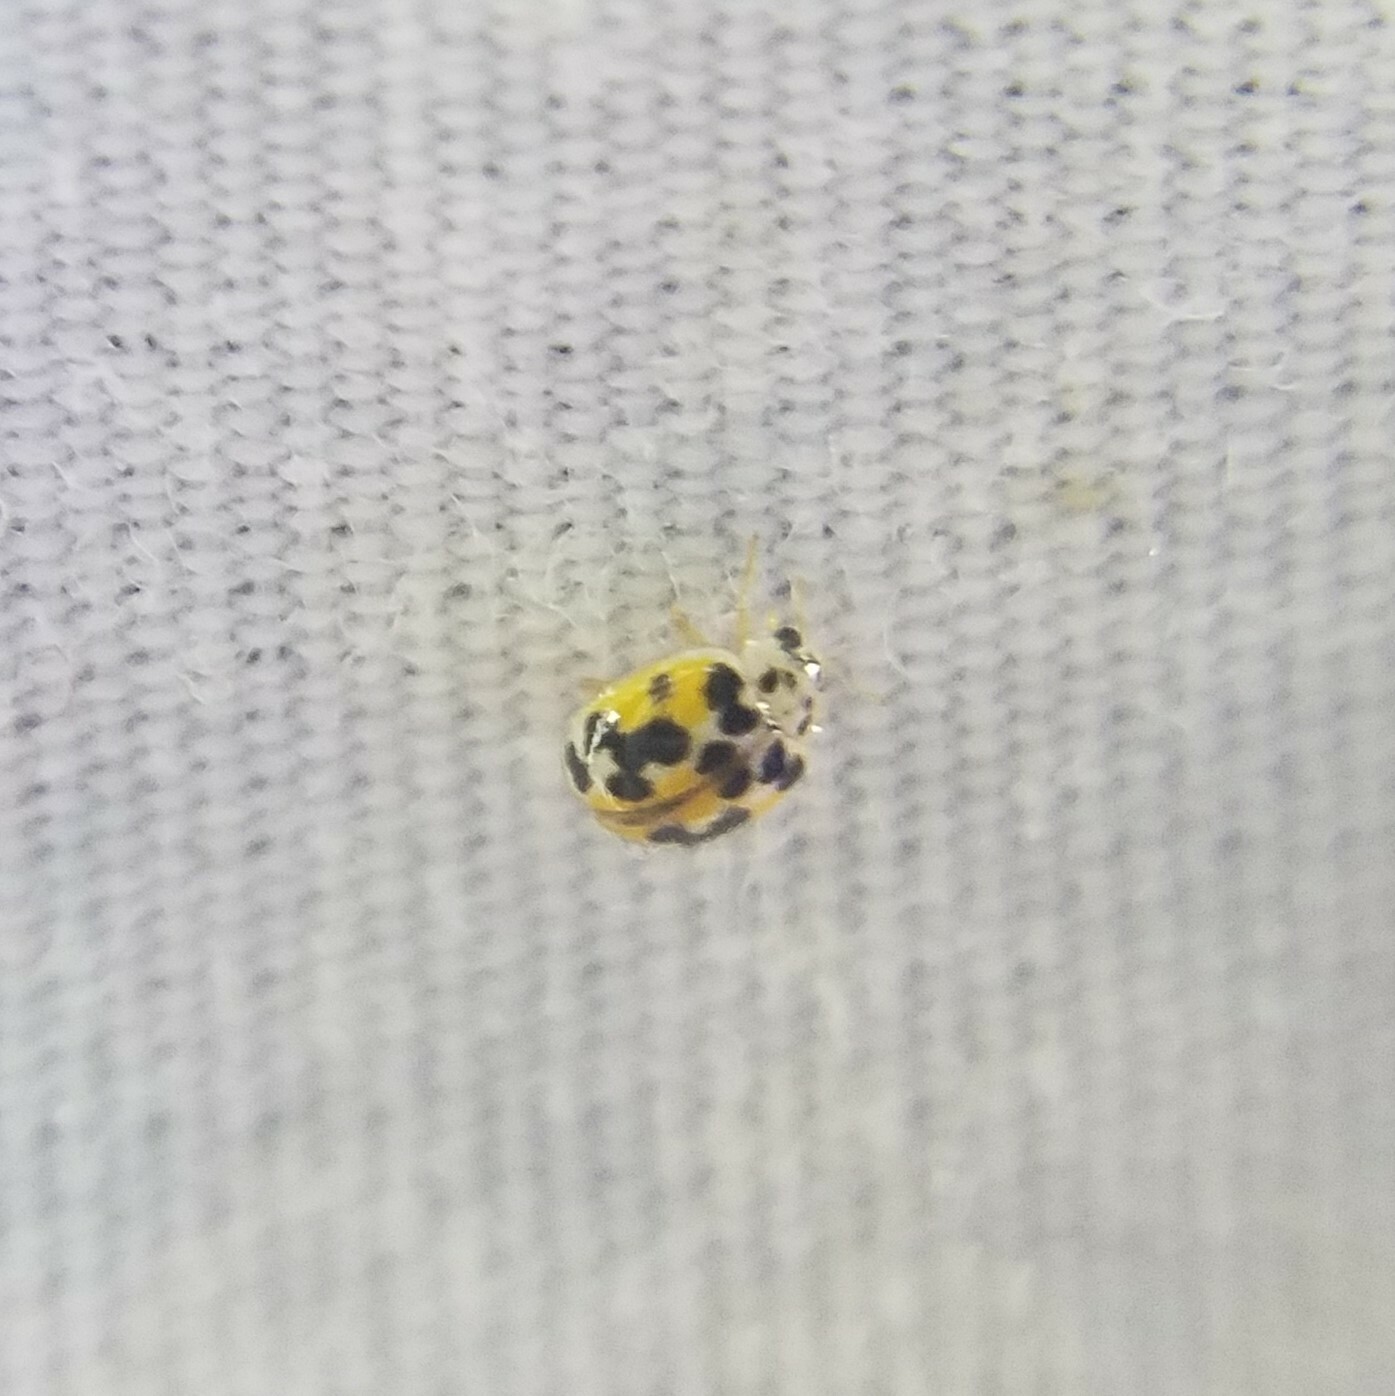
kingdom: Animalia
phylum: Arthropoda
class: Insecta
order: Coleoptera
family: Coccinellidae
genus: Psyllobora
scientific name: Psyllobora vigintimaculata
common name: Ladybird beetle
